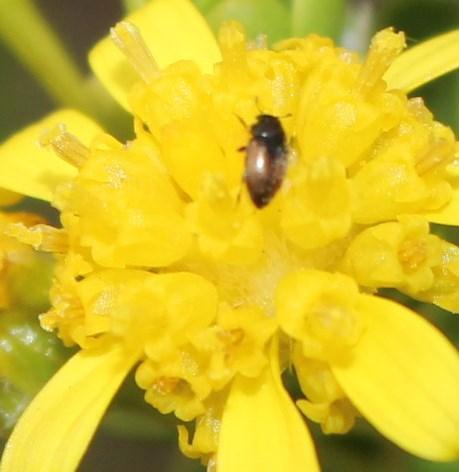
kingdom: Plantae
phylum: Tracheophyta
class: Magnoliopsida
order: Asterales
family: Asteraceae
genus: Euryops
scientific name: Euryops imbricatus
